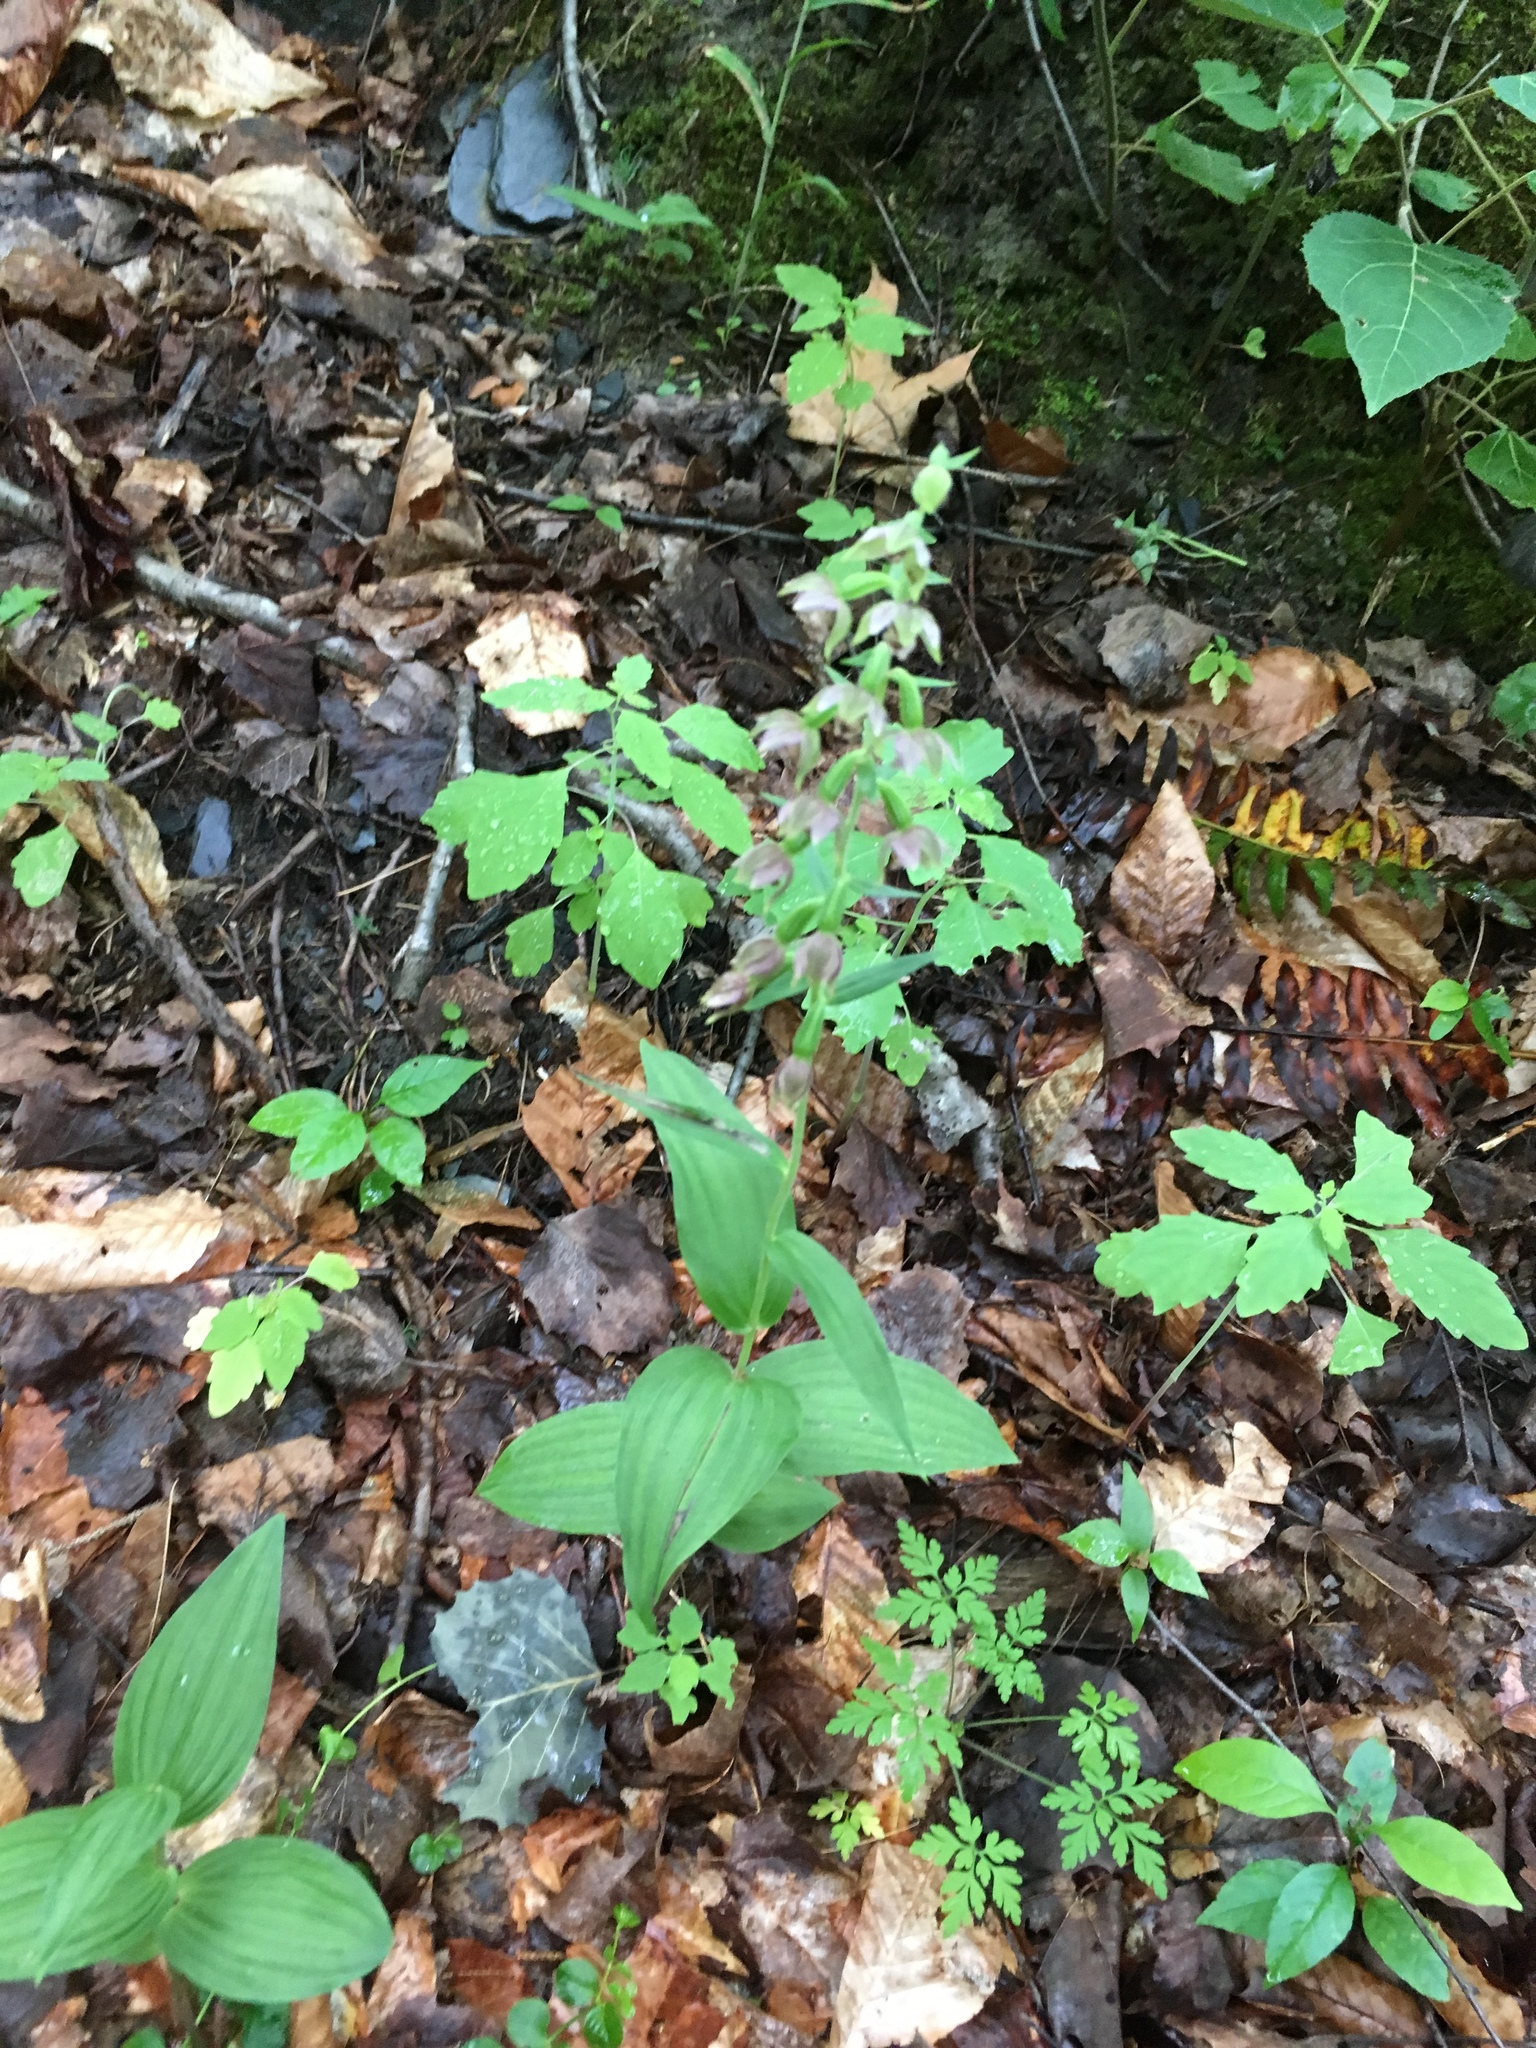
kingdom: Plantae
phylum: Tracheophyta
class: Liliopsida
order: Asparagales
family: Orchidaceae
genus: Epipactis
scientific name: Epipactis helleborine
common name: Broad-leaved helleborine
